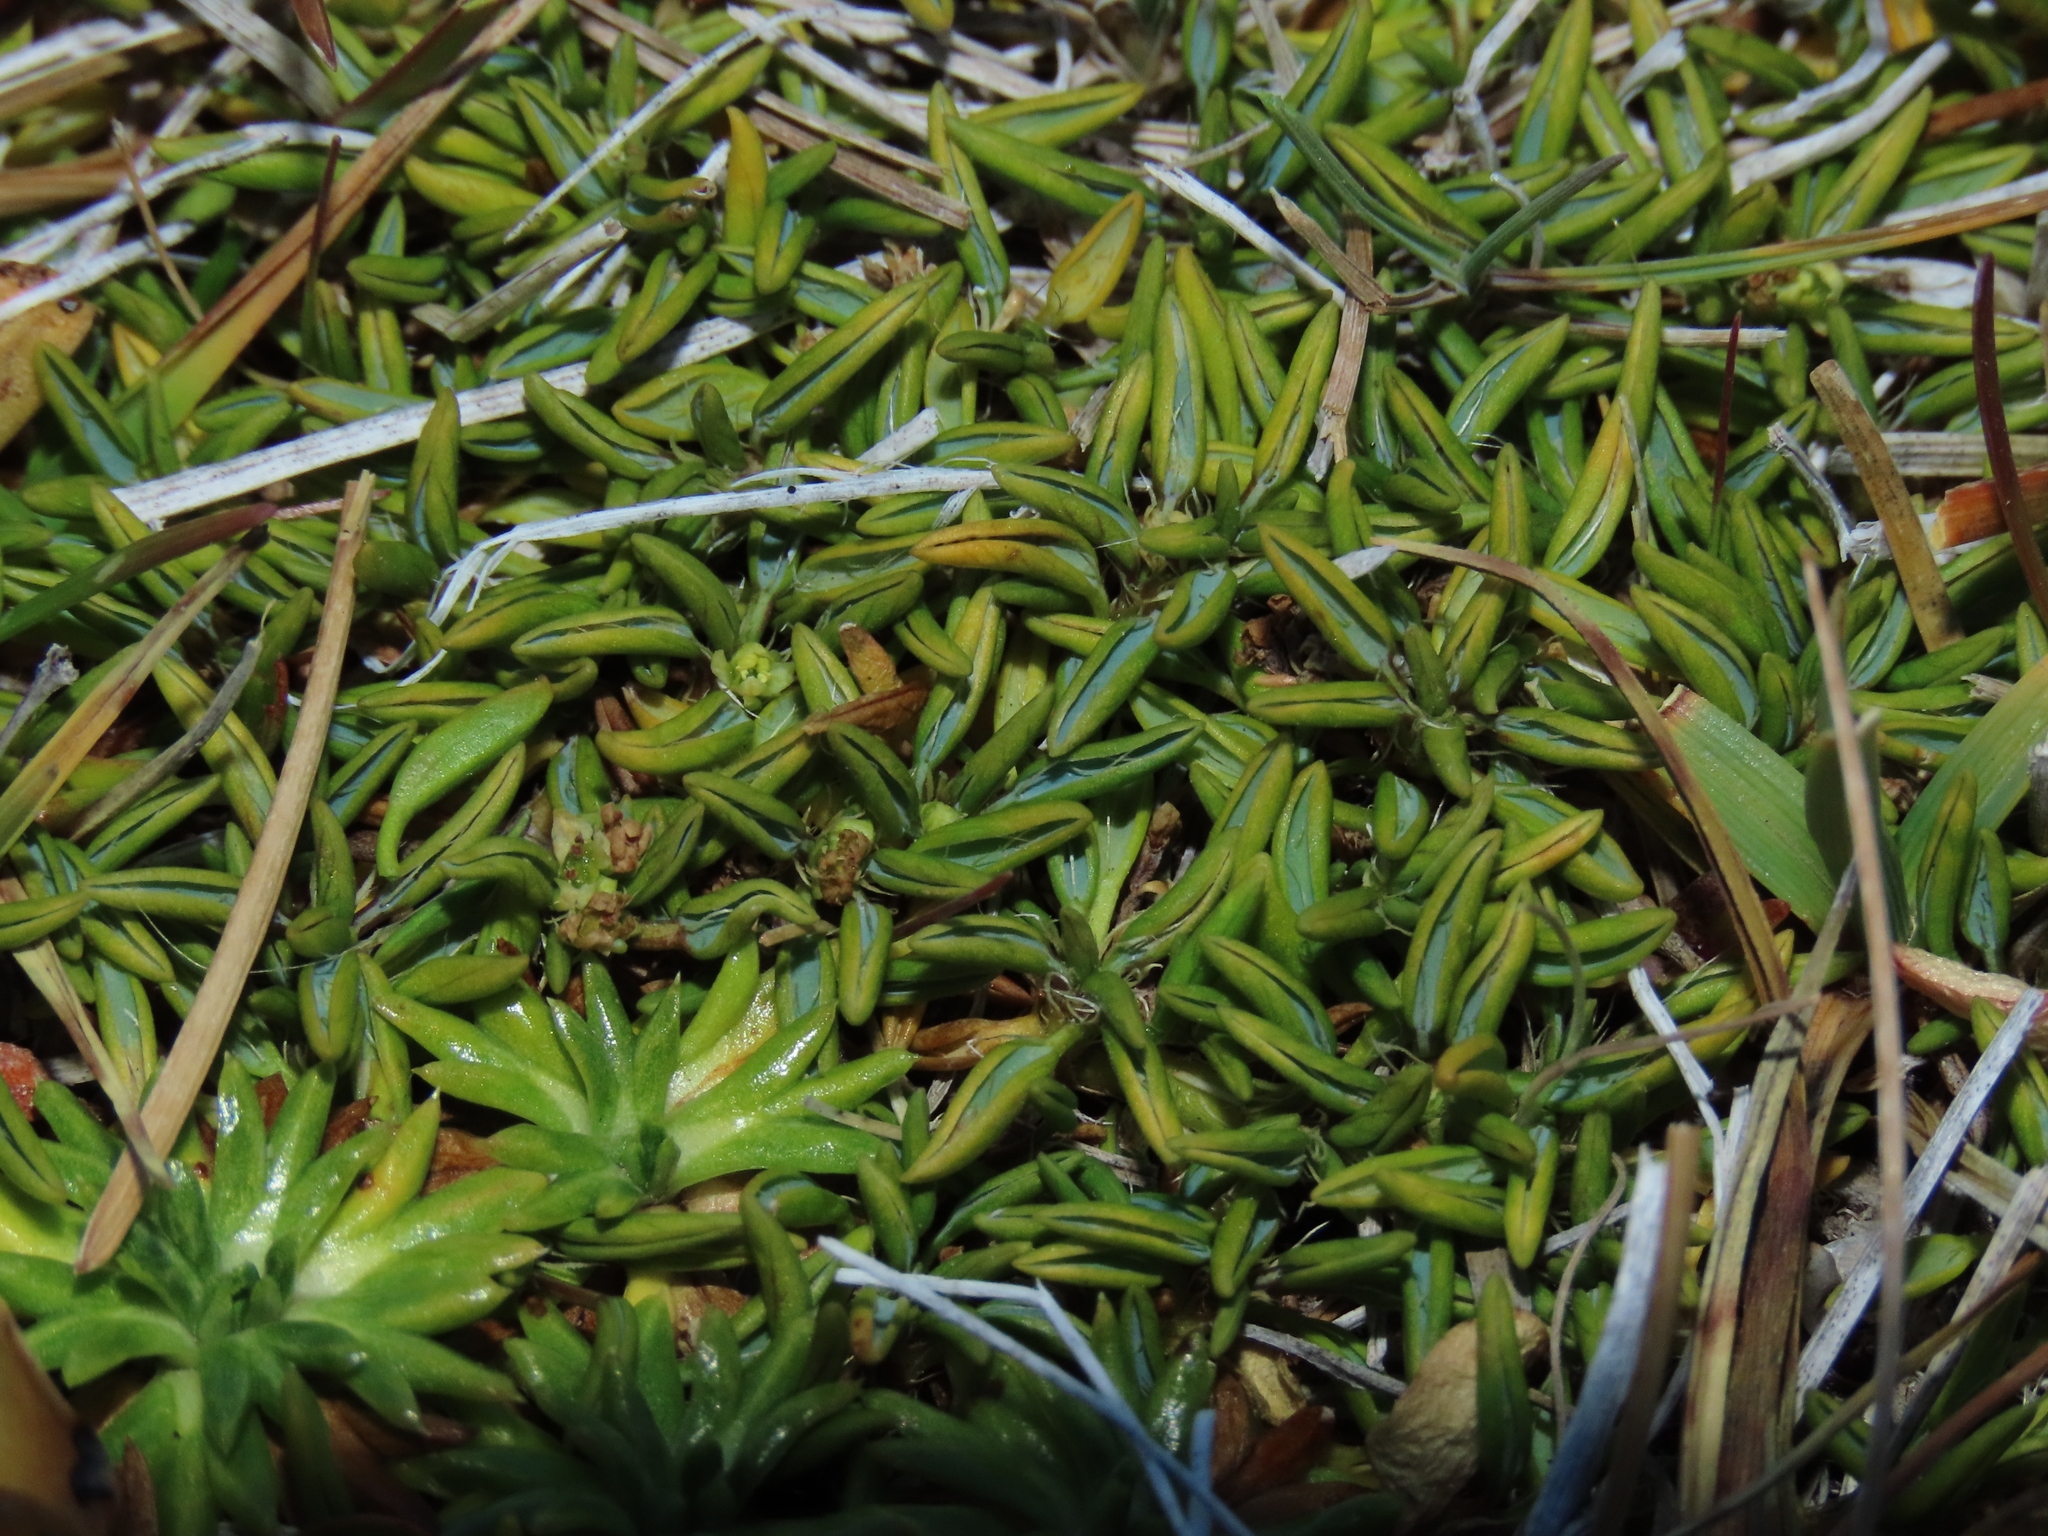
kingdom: Plantae
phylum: Tracheophyta
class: Magnoliopsida
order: Apiales
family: Apiaceae
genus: Azorella
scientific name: Azorella filamentosa
